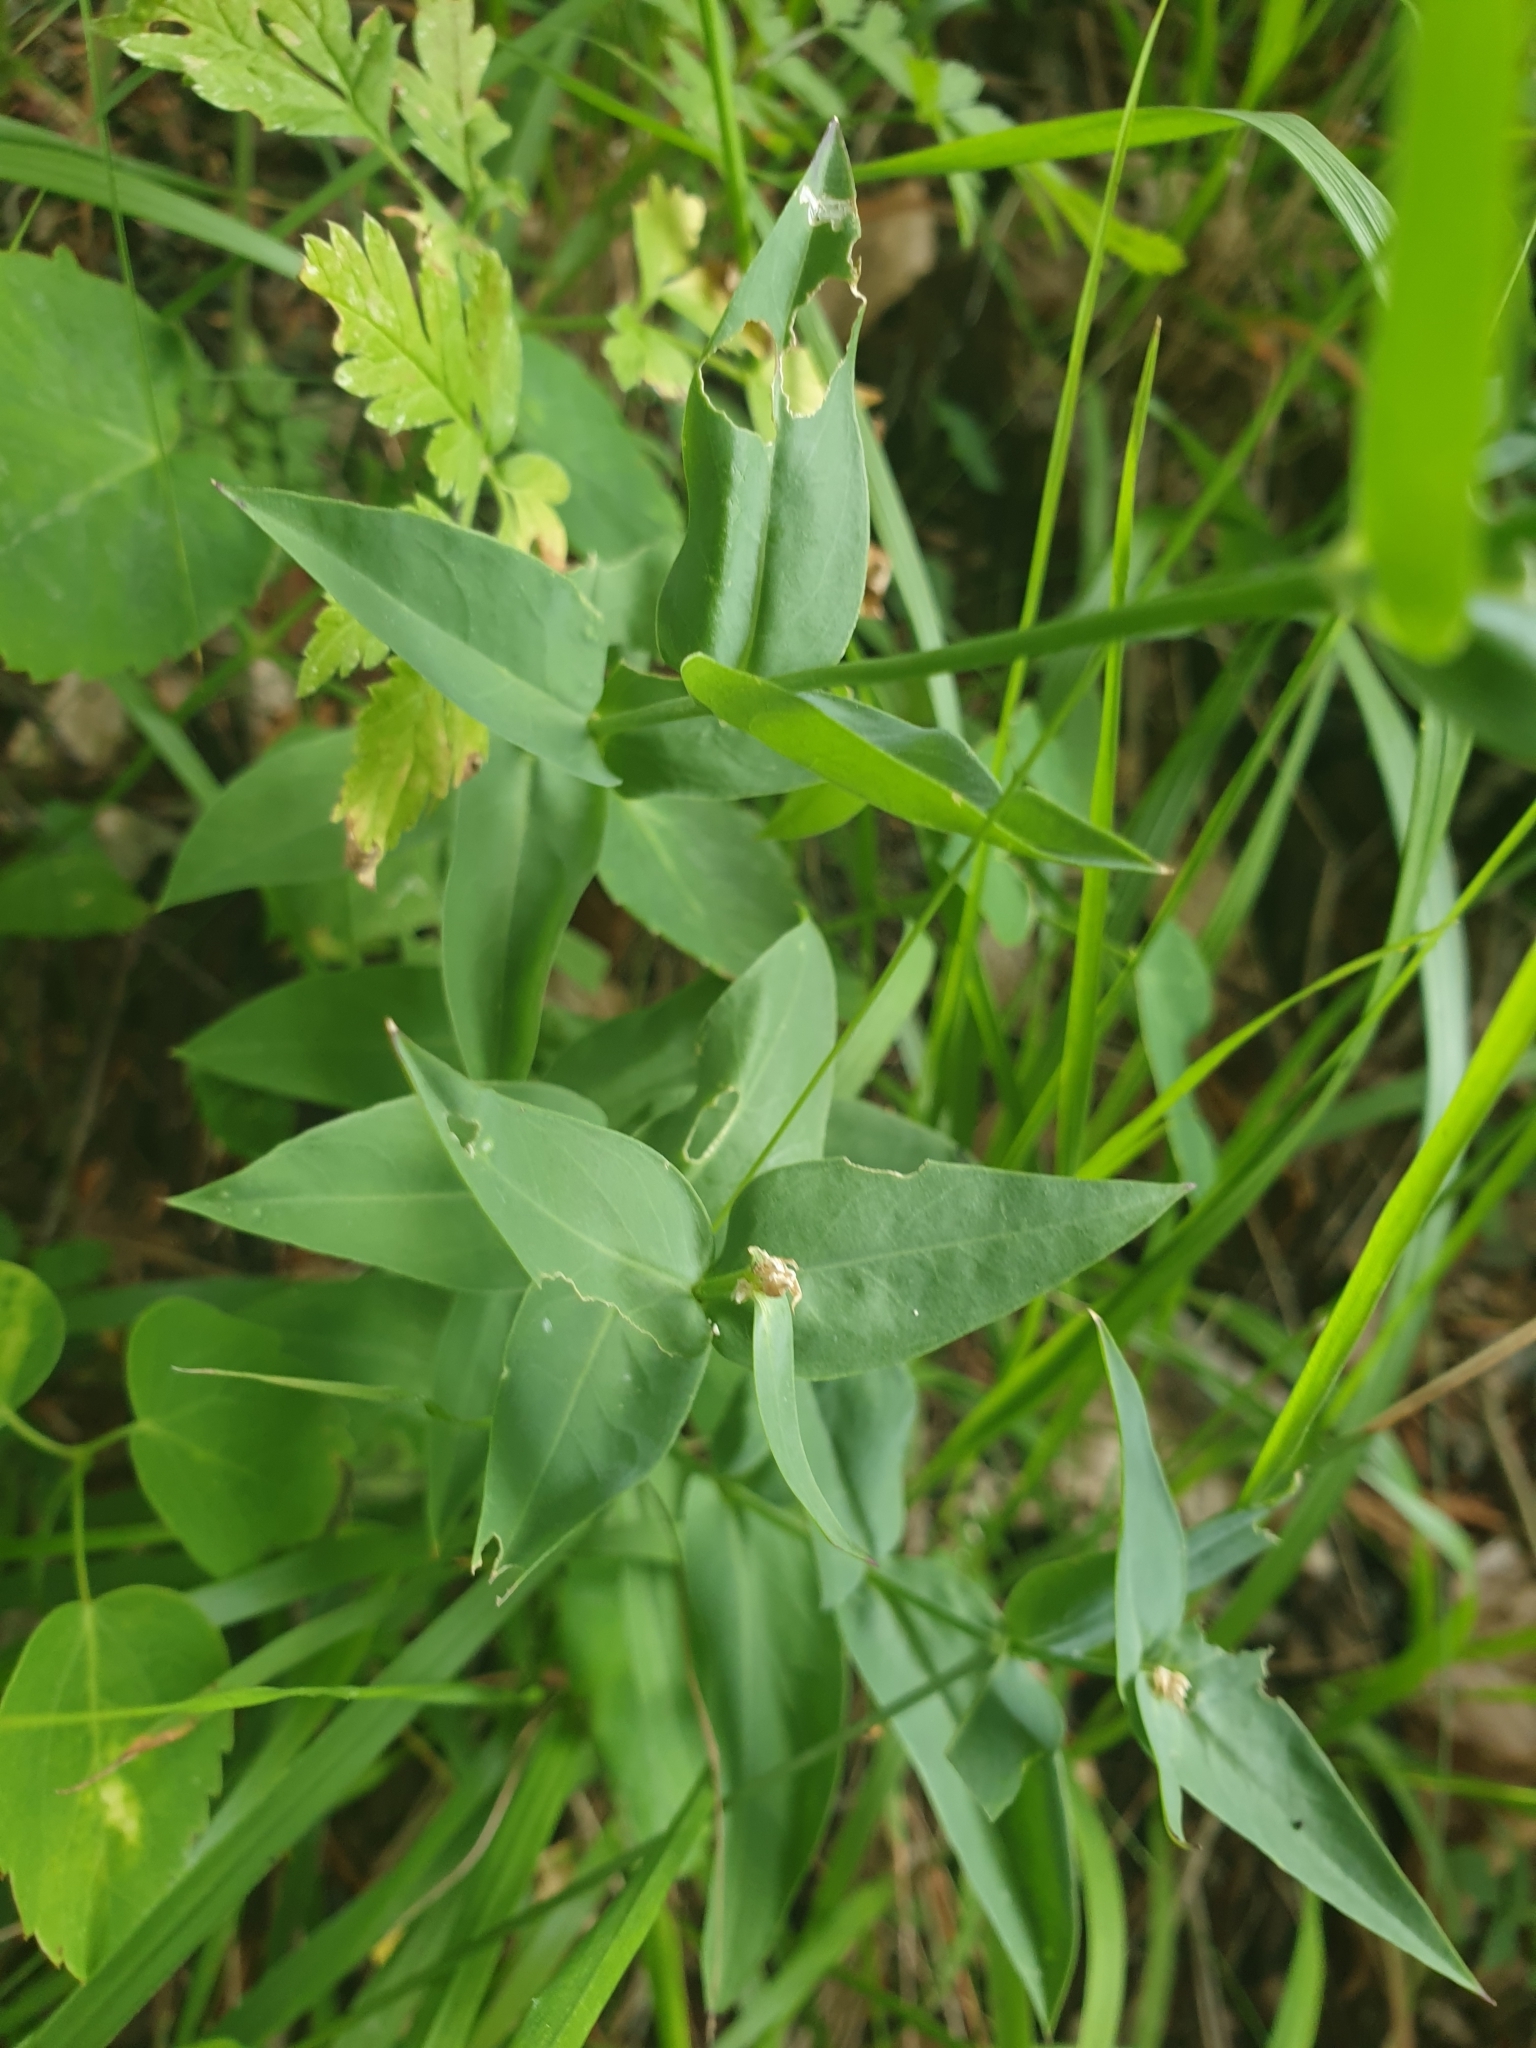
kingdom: Plantae
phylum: Tracheophyta
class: Magnoliopsida
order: Caryophyllales
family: Caryophyllaceae
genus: Silene
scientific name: Silene vulgaris
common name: Bladder campion
